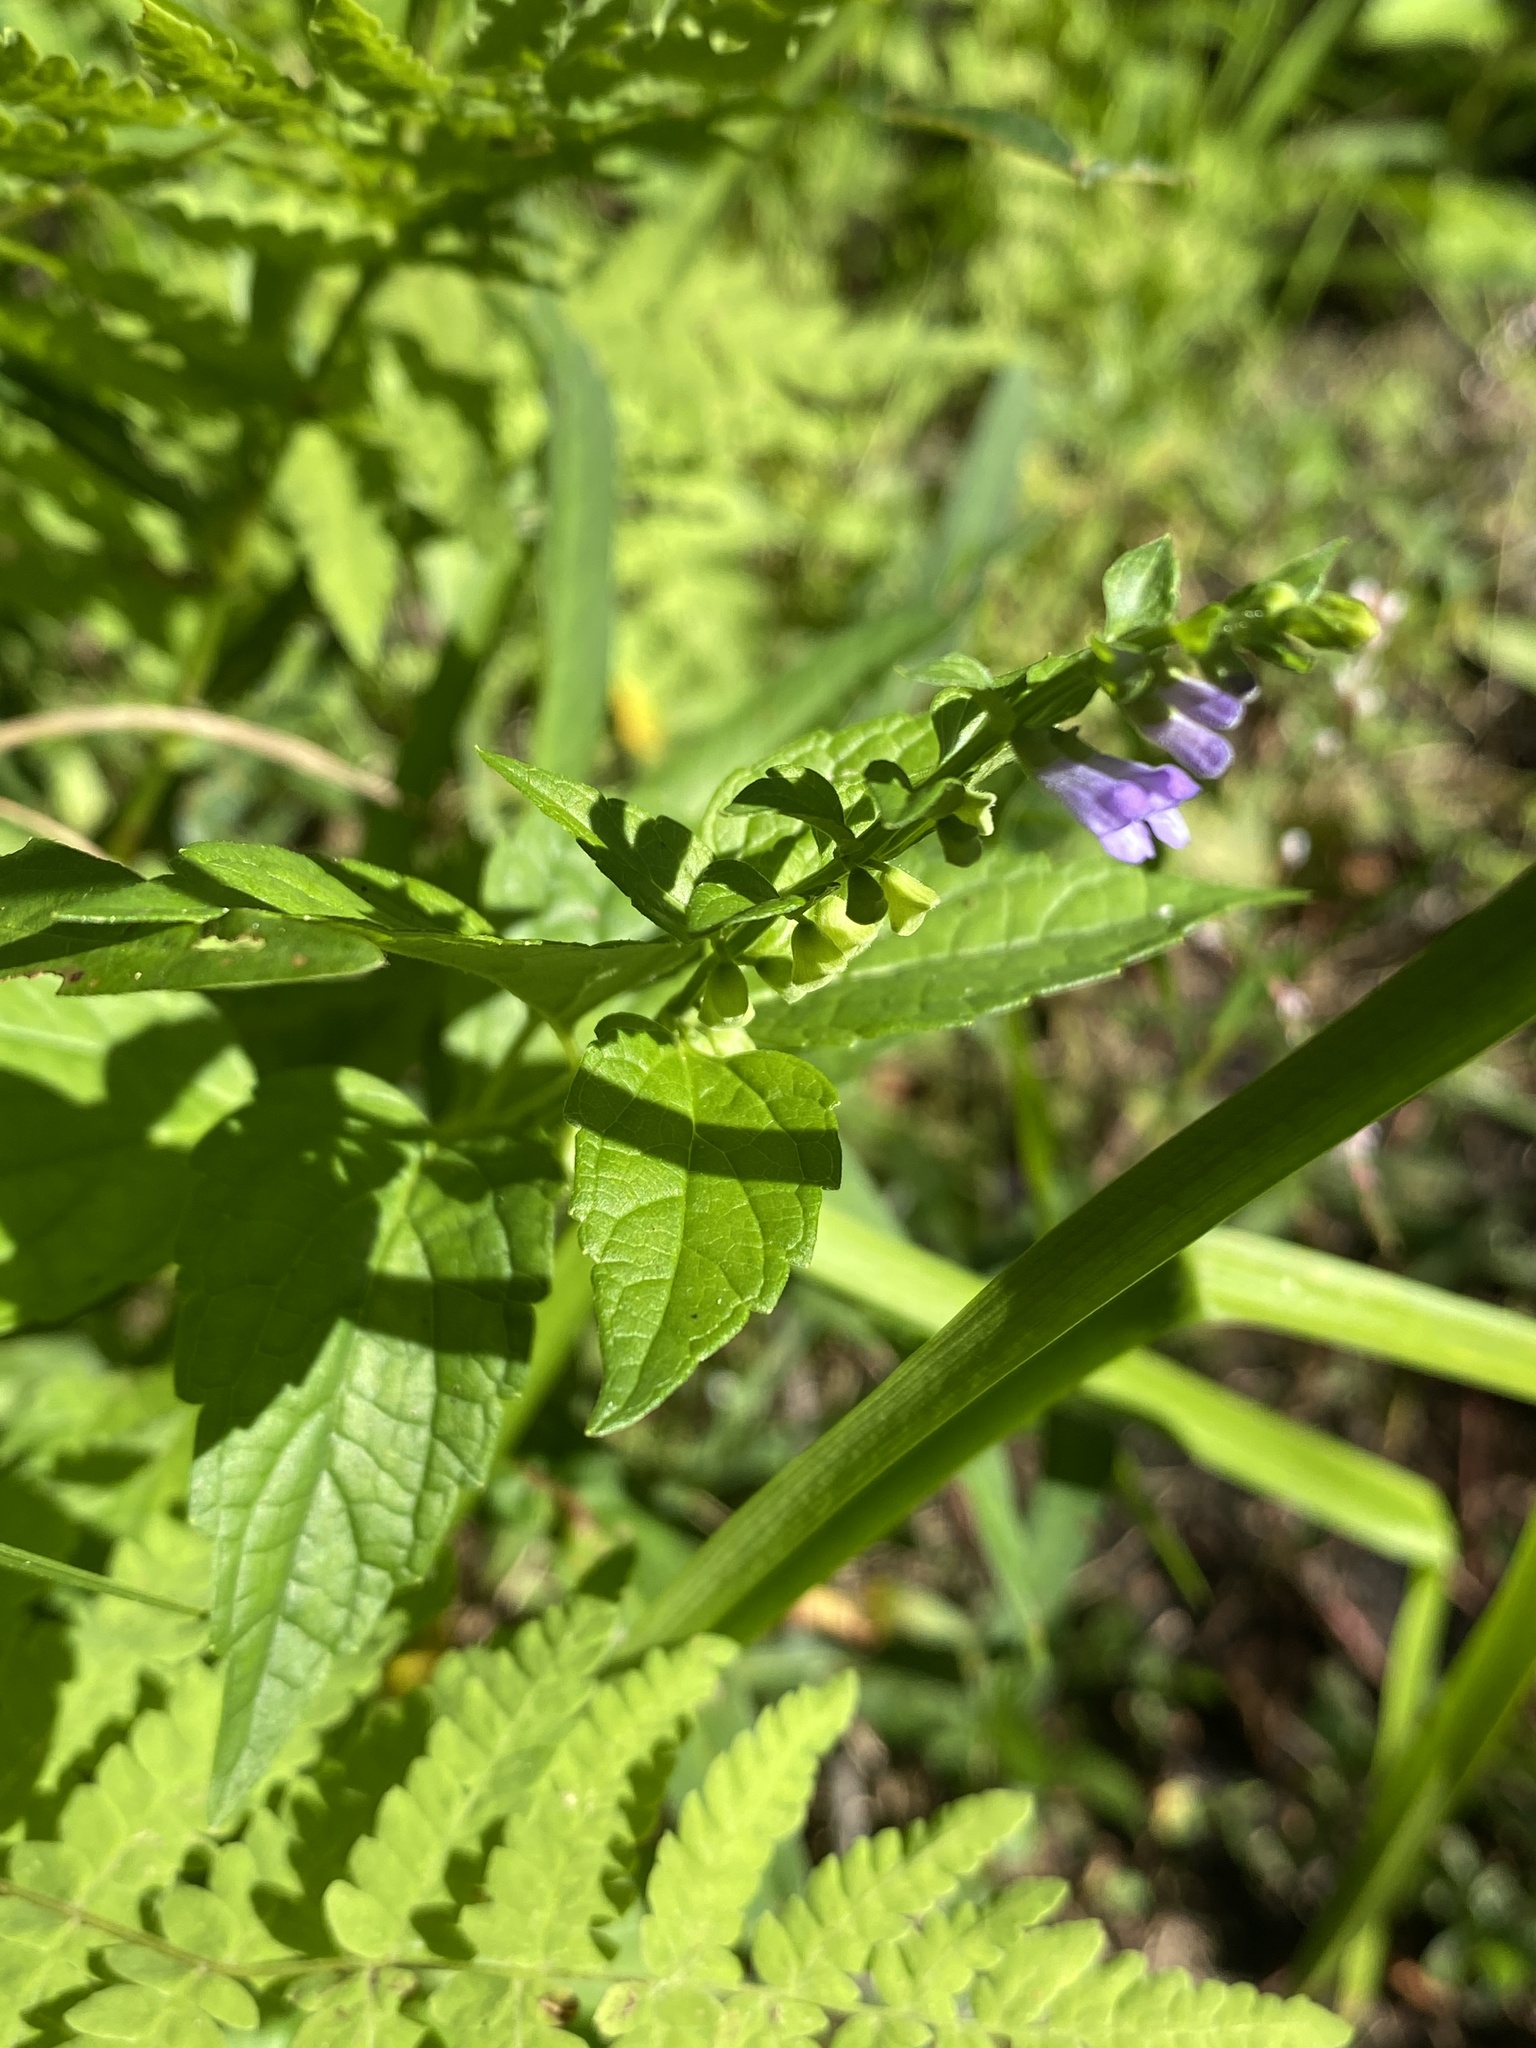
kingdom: Plantae
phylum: Tracheophyta
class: Magnoliopsida
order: Lamiales
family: Lamiaceae
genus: Scutellaria
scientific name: Scutellaria lateriflora
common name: Blue skullcap
